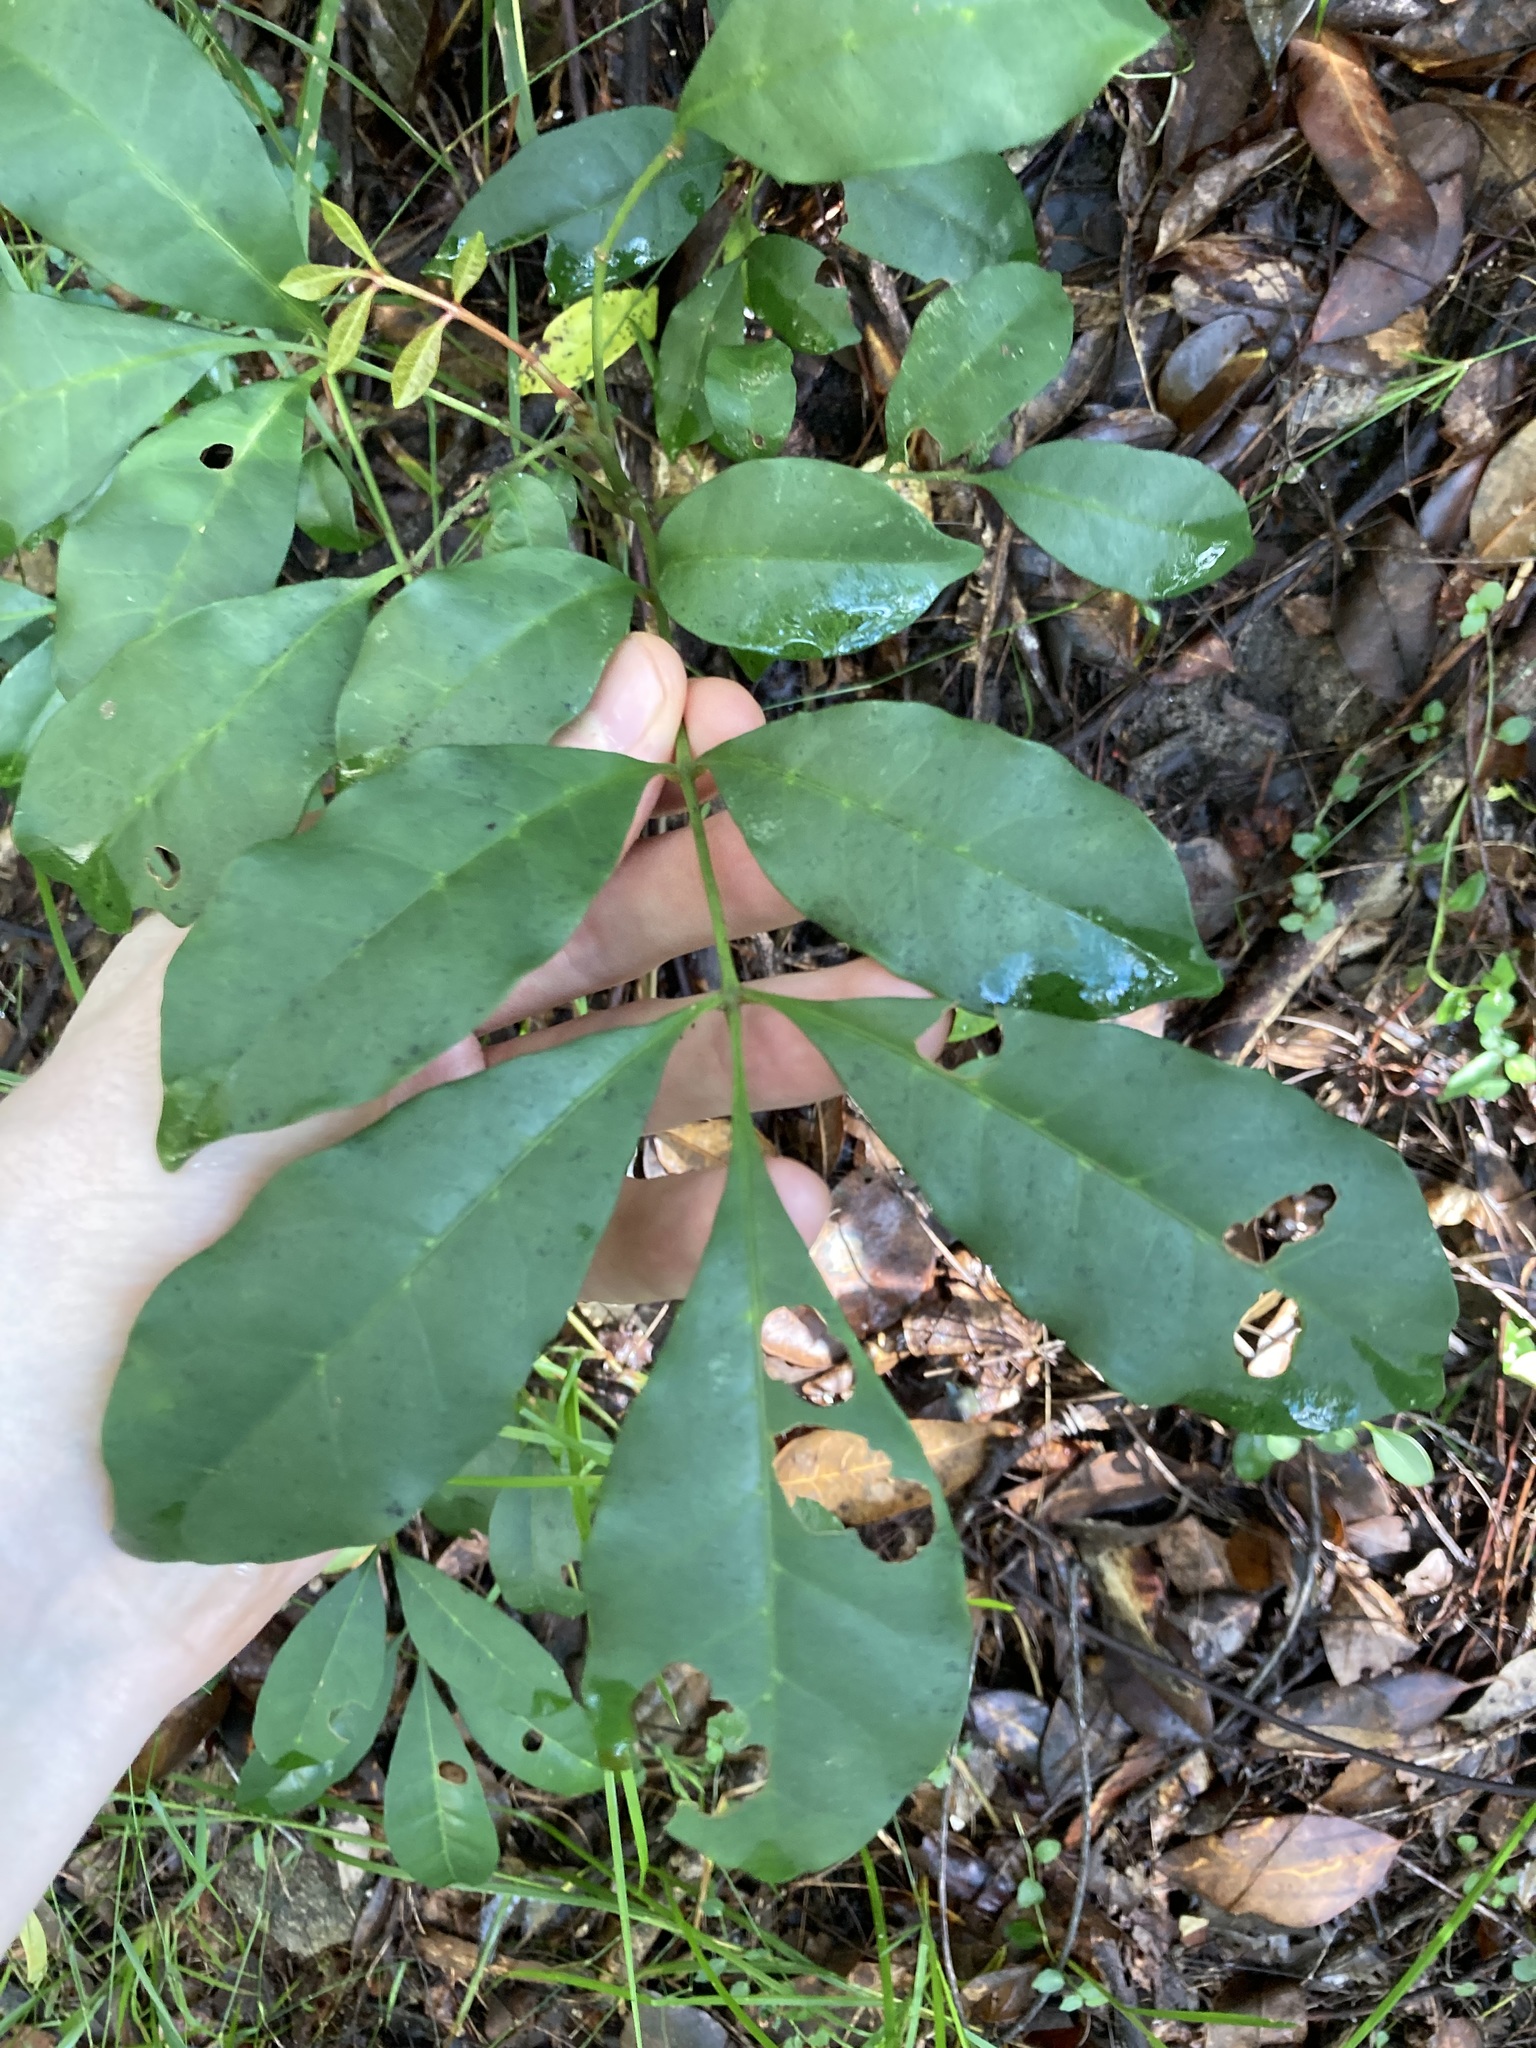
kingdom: Plantae
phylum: Tracheophyta
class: Magnoliopsida
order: Sapindales
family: Meliaceae
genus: Synoum
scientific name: Synoum glandulosum
